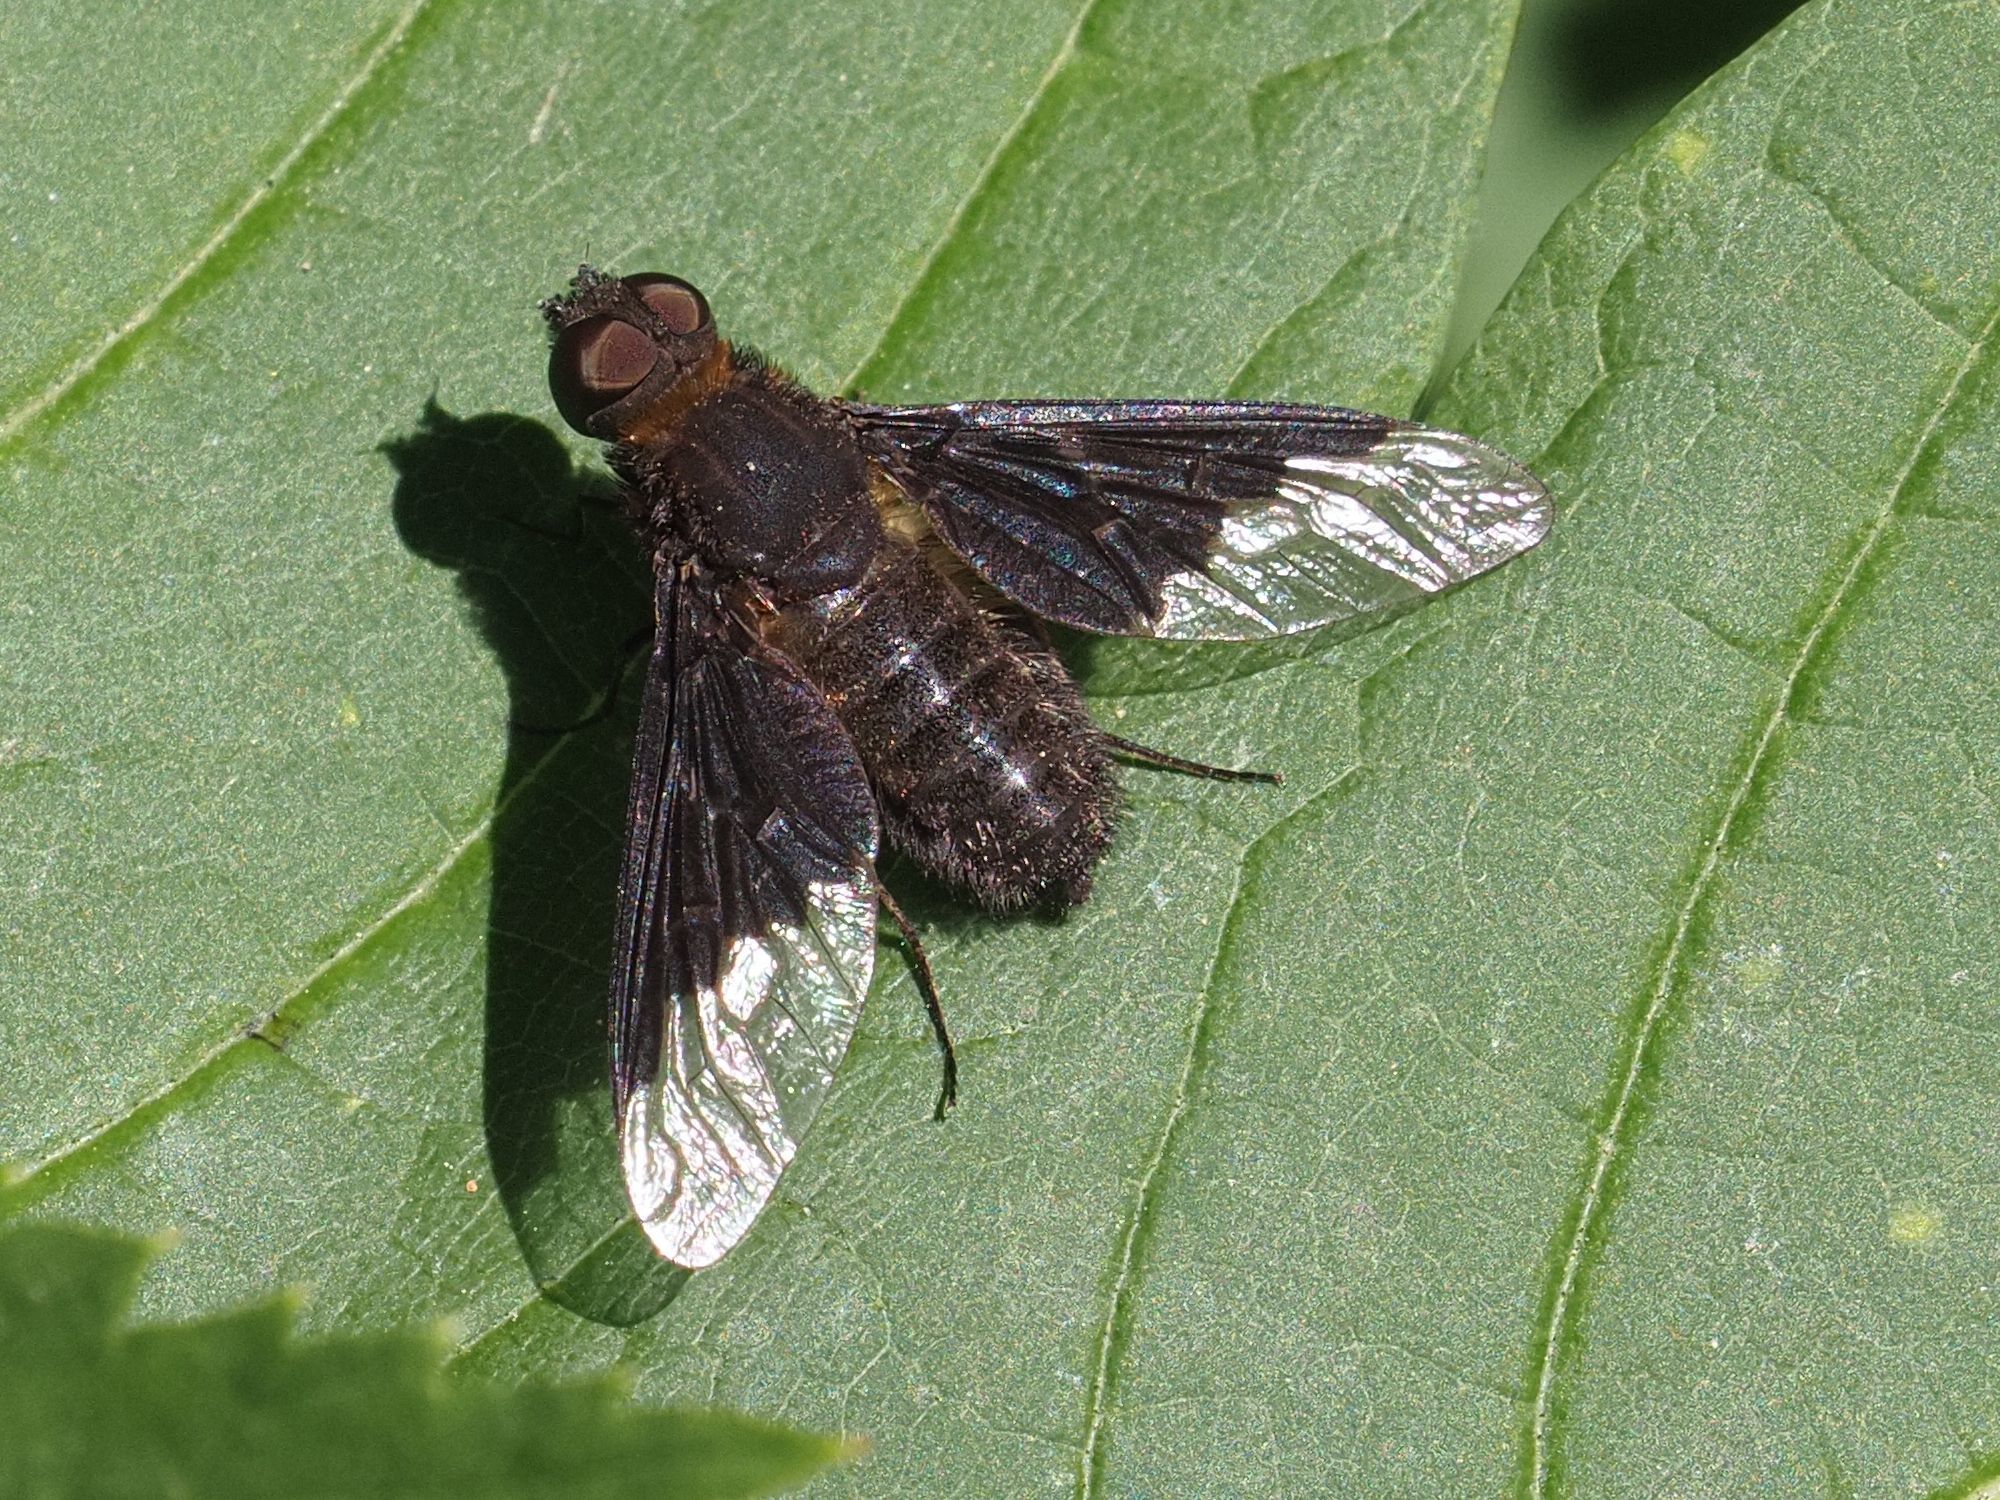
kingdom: Animalia
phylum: Arthropoda
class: Insecta
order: Diptera
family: Bombyliidae
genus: Hemipenthes
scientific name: Hemipenthes morio
